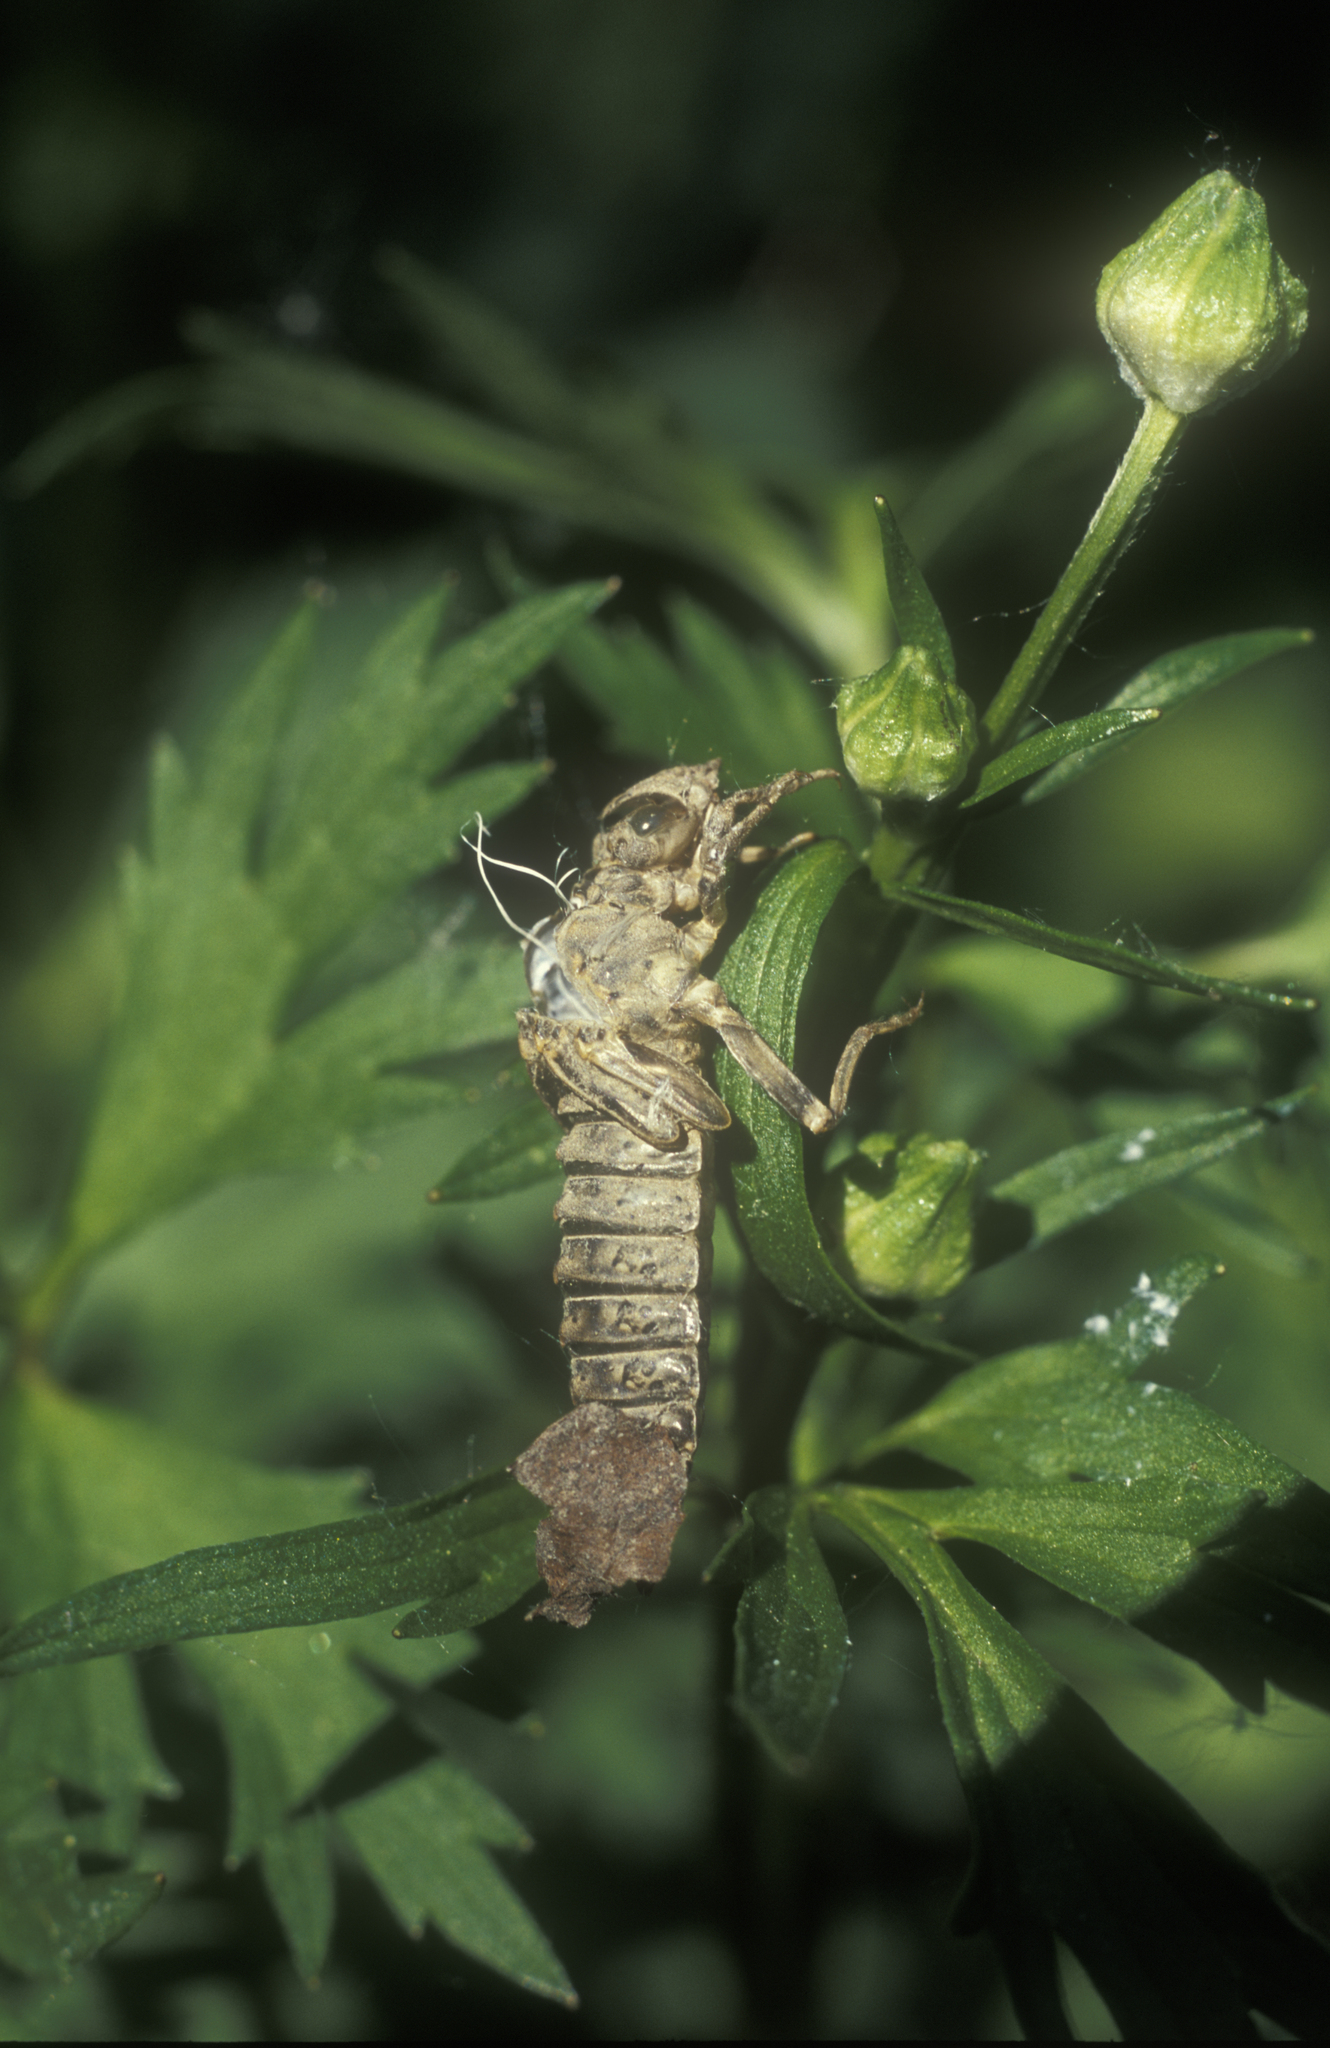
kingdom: Animalia
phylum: Arthropoda
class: Insecta
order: Odonata
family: Gomphidae
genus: Nihonogomphus
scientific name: Nihonogomphus ruptus
